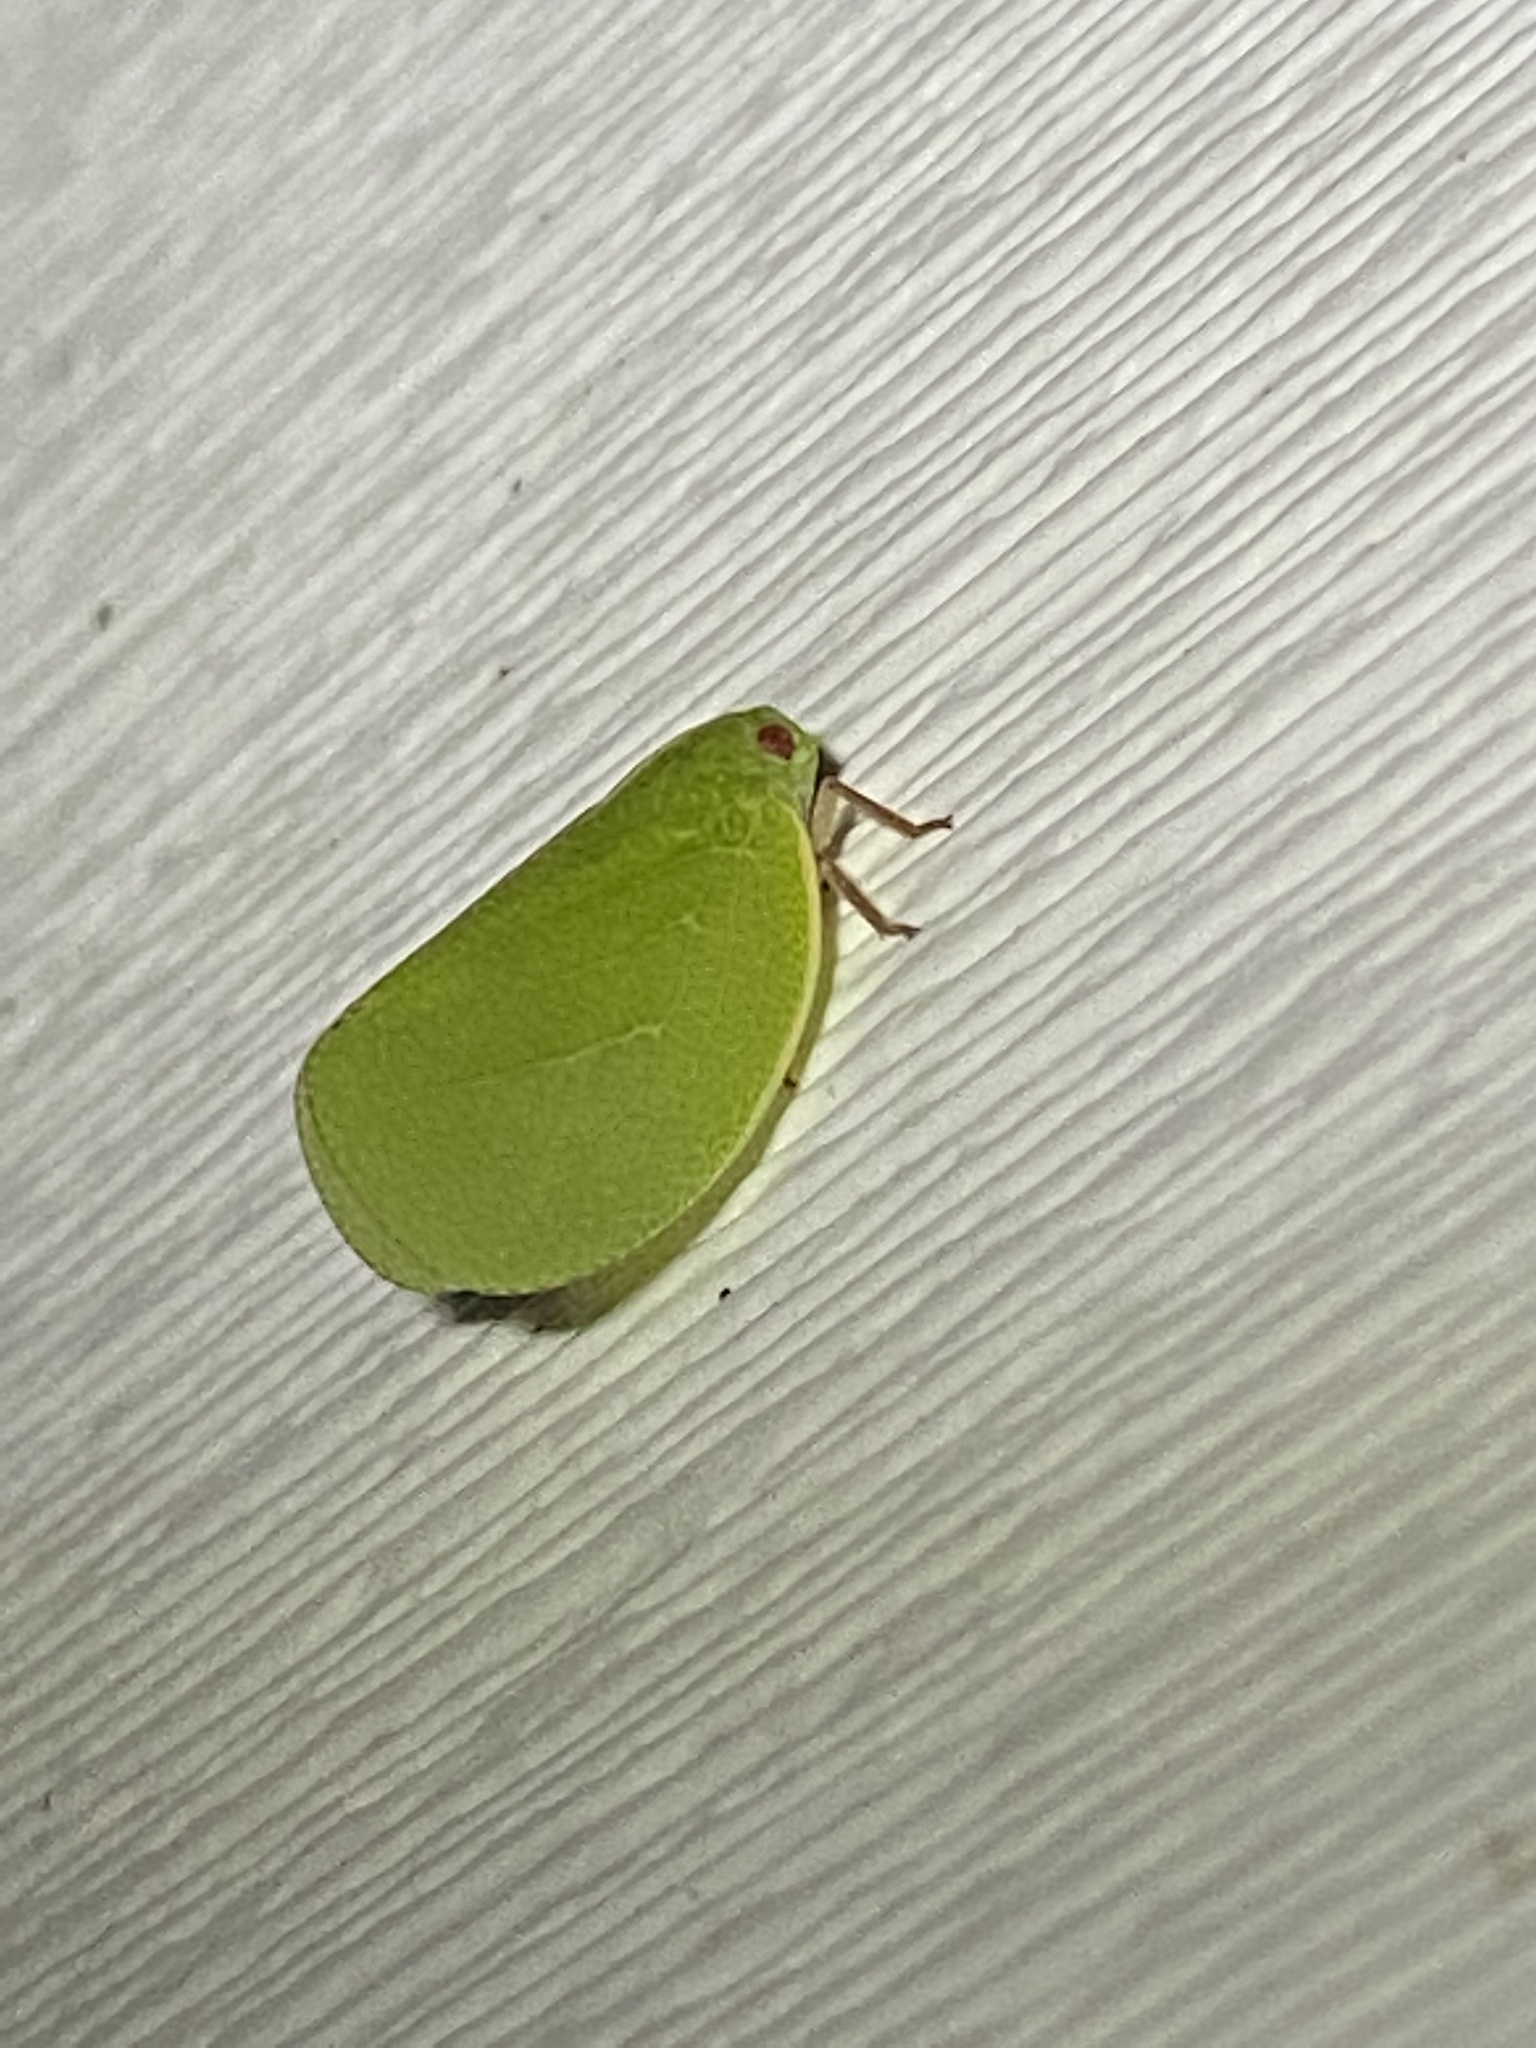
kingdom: Animalia
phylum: Arthropoda
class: Insecta
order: Hemiptera
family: Acanaloniidae
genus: Acanalonia
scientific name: Acanalonia servillei
